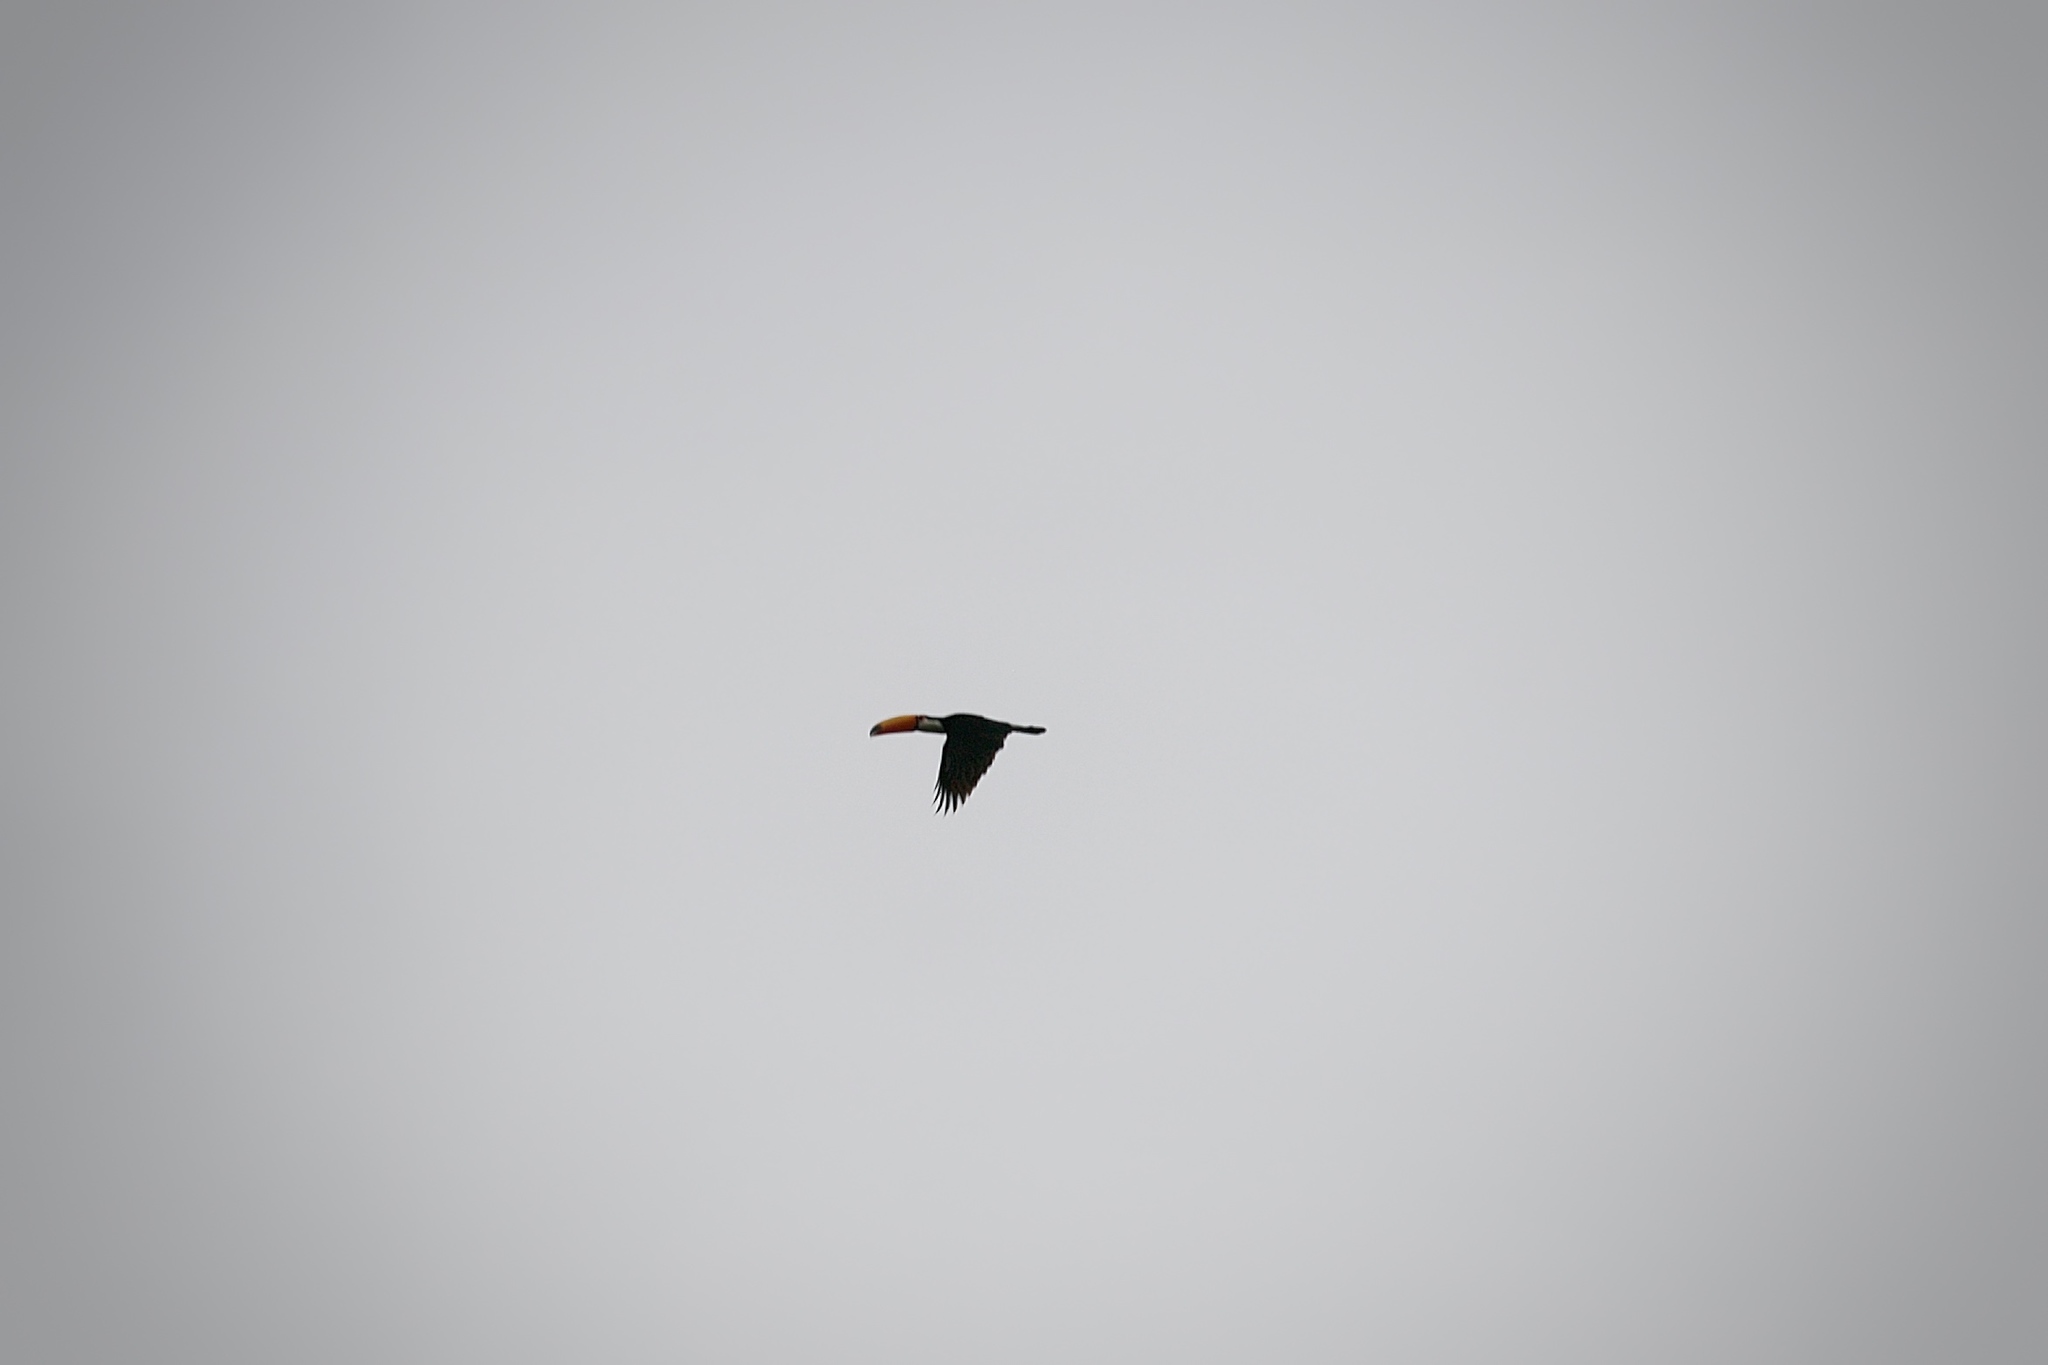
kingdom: Animalia
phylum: Chordata
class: Aves
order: Piciformes
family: Ramphastidae
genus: Ramphastos
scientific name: Ramphastos toco
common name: Toco toucan
